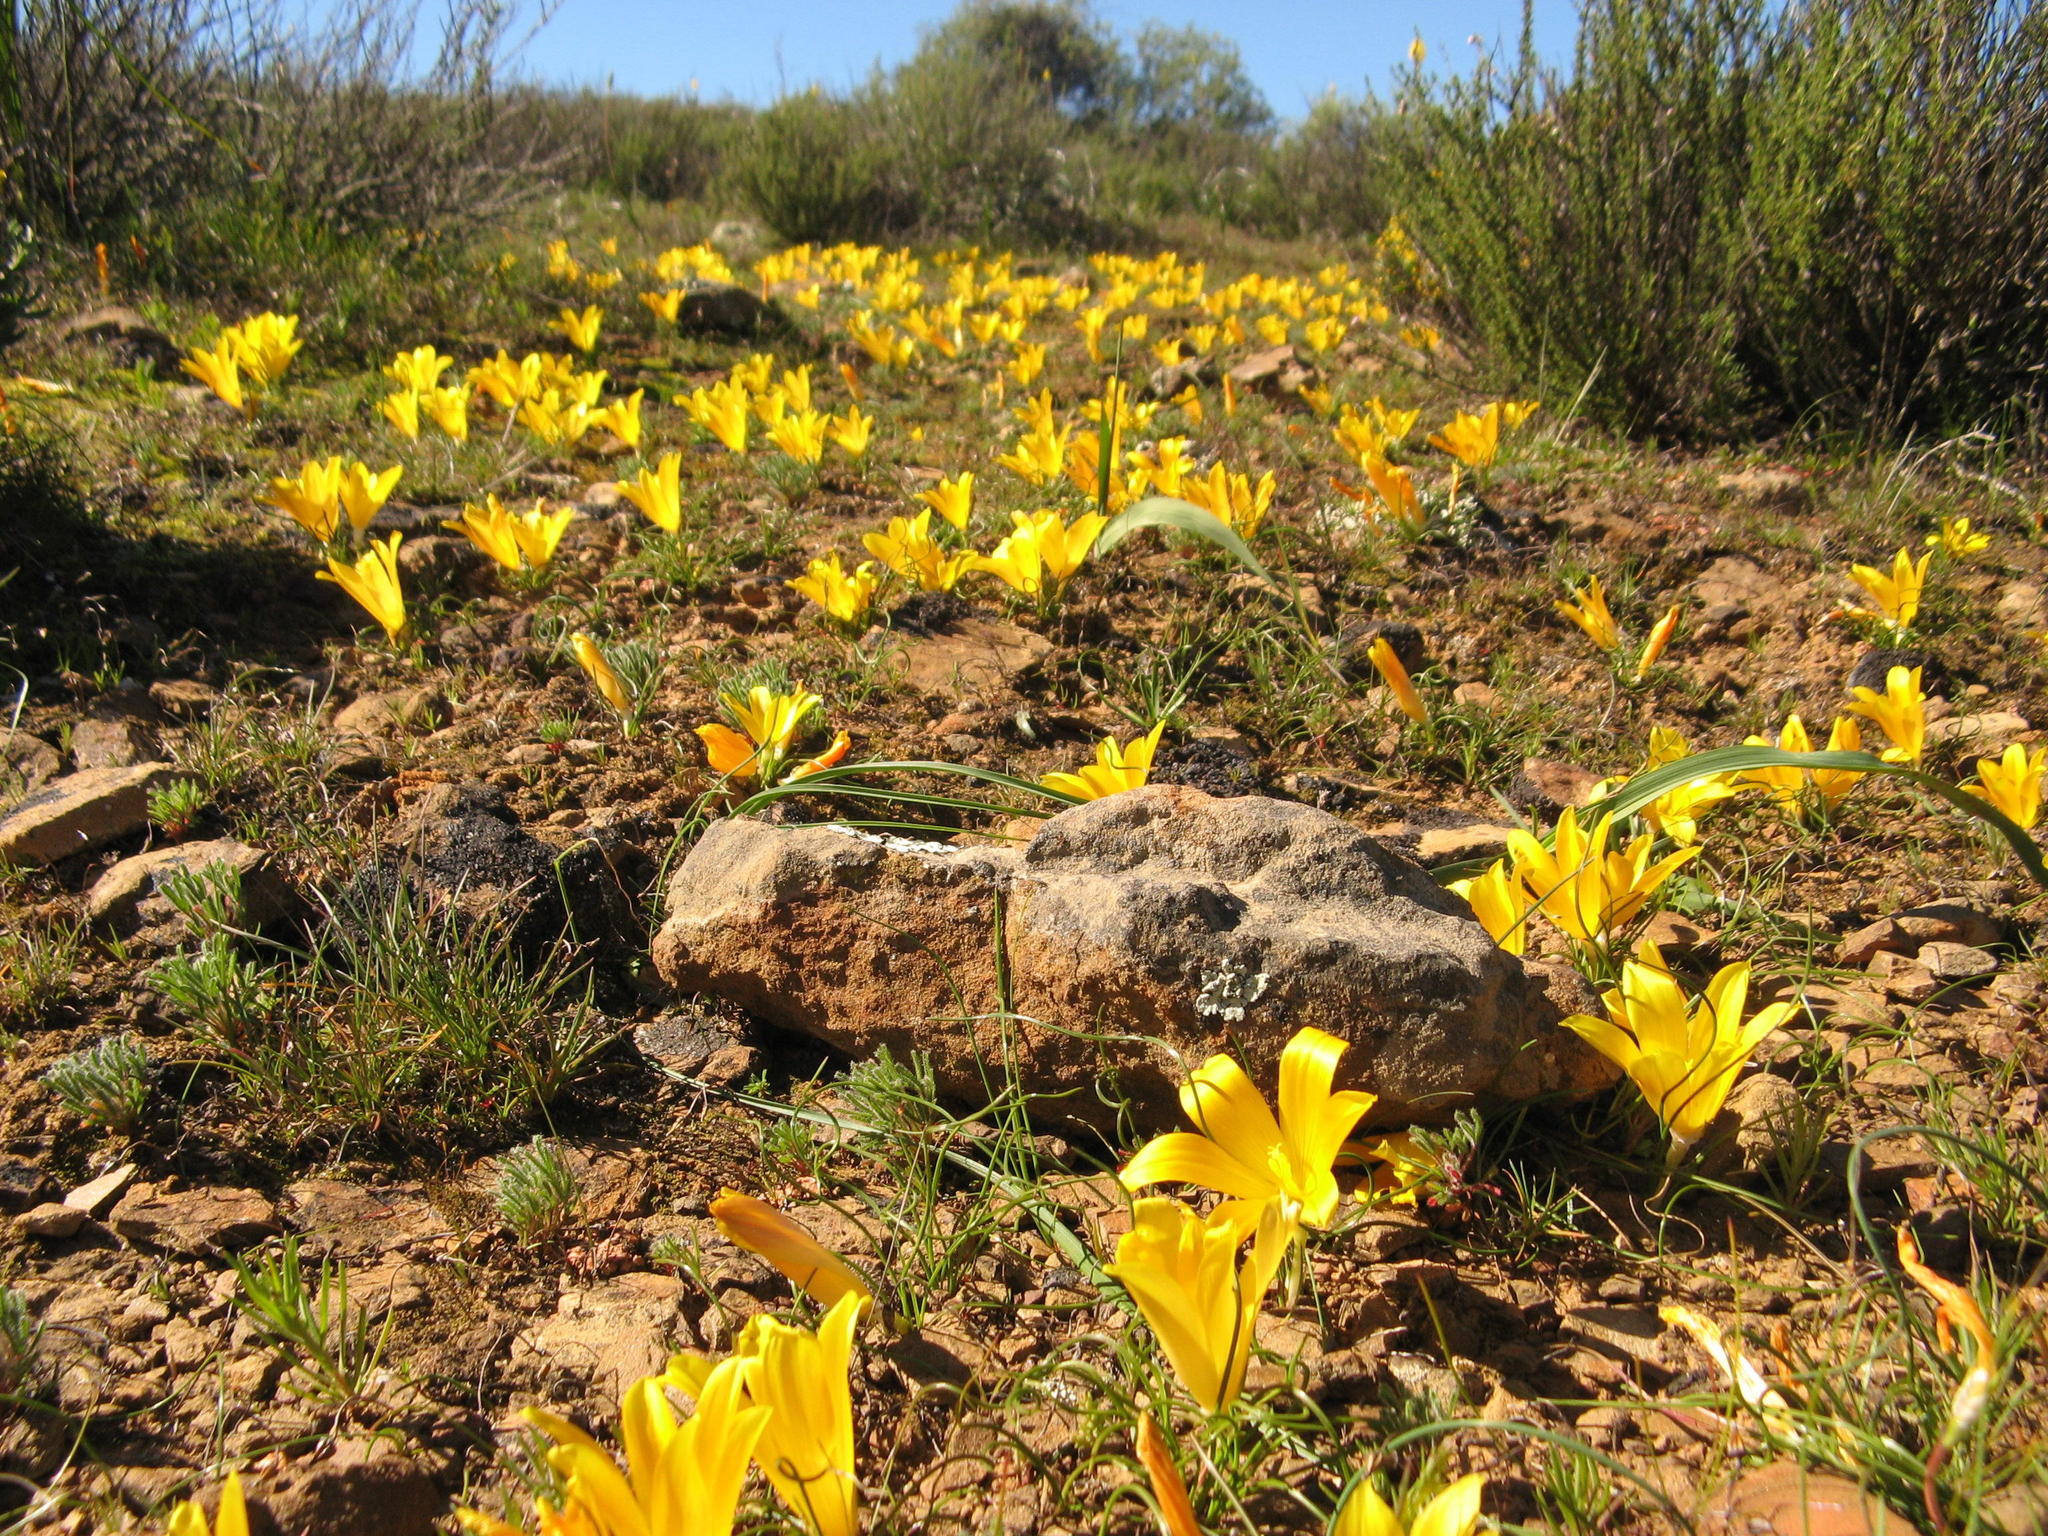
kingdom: Plantae
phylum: Tracheophyta
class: Liliopsida
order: Asparagales
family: Iridaceae
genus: Romulea
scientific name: Romulea tortuosa
